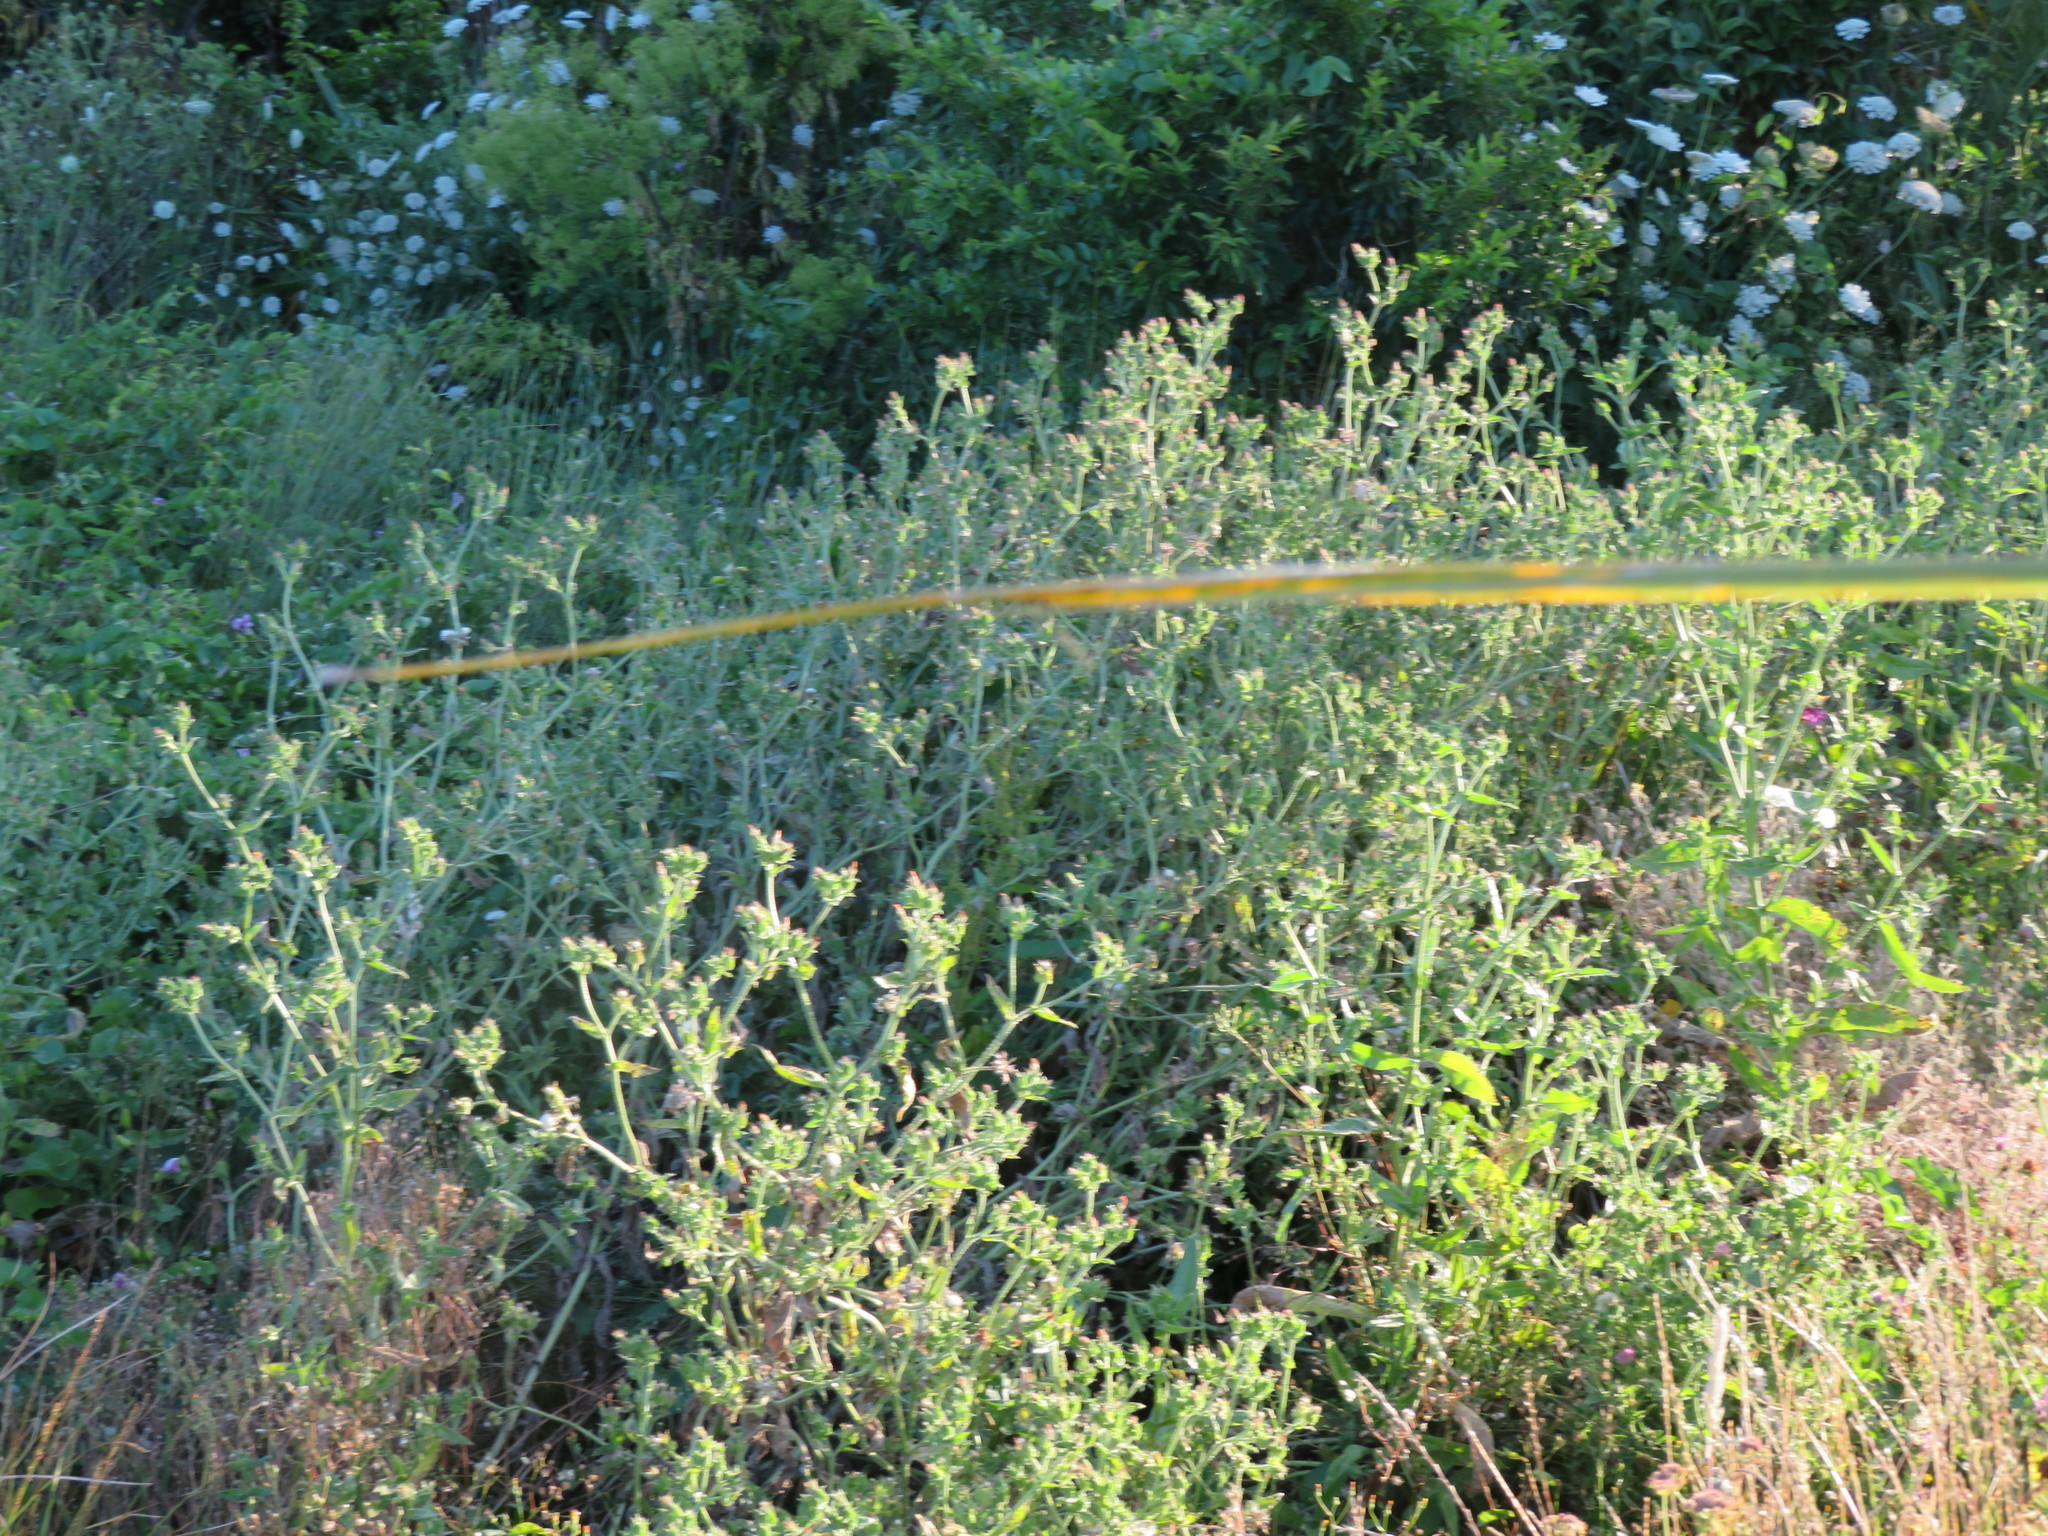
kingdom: Plantae
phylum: Tracheophyta
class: Magnoliopsida
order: Asterales
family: Asteraceae
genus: Helminthotheca
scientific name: Helminthotheca echioides
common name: Ox-tongue
